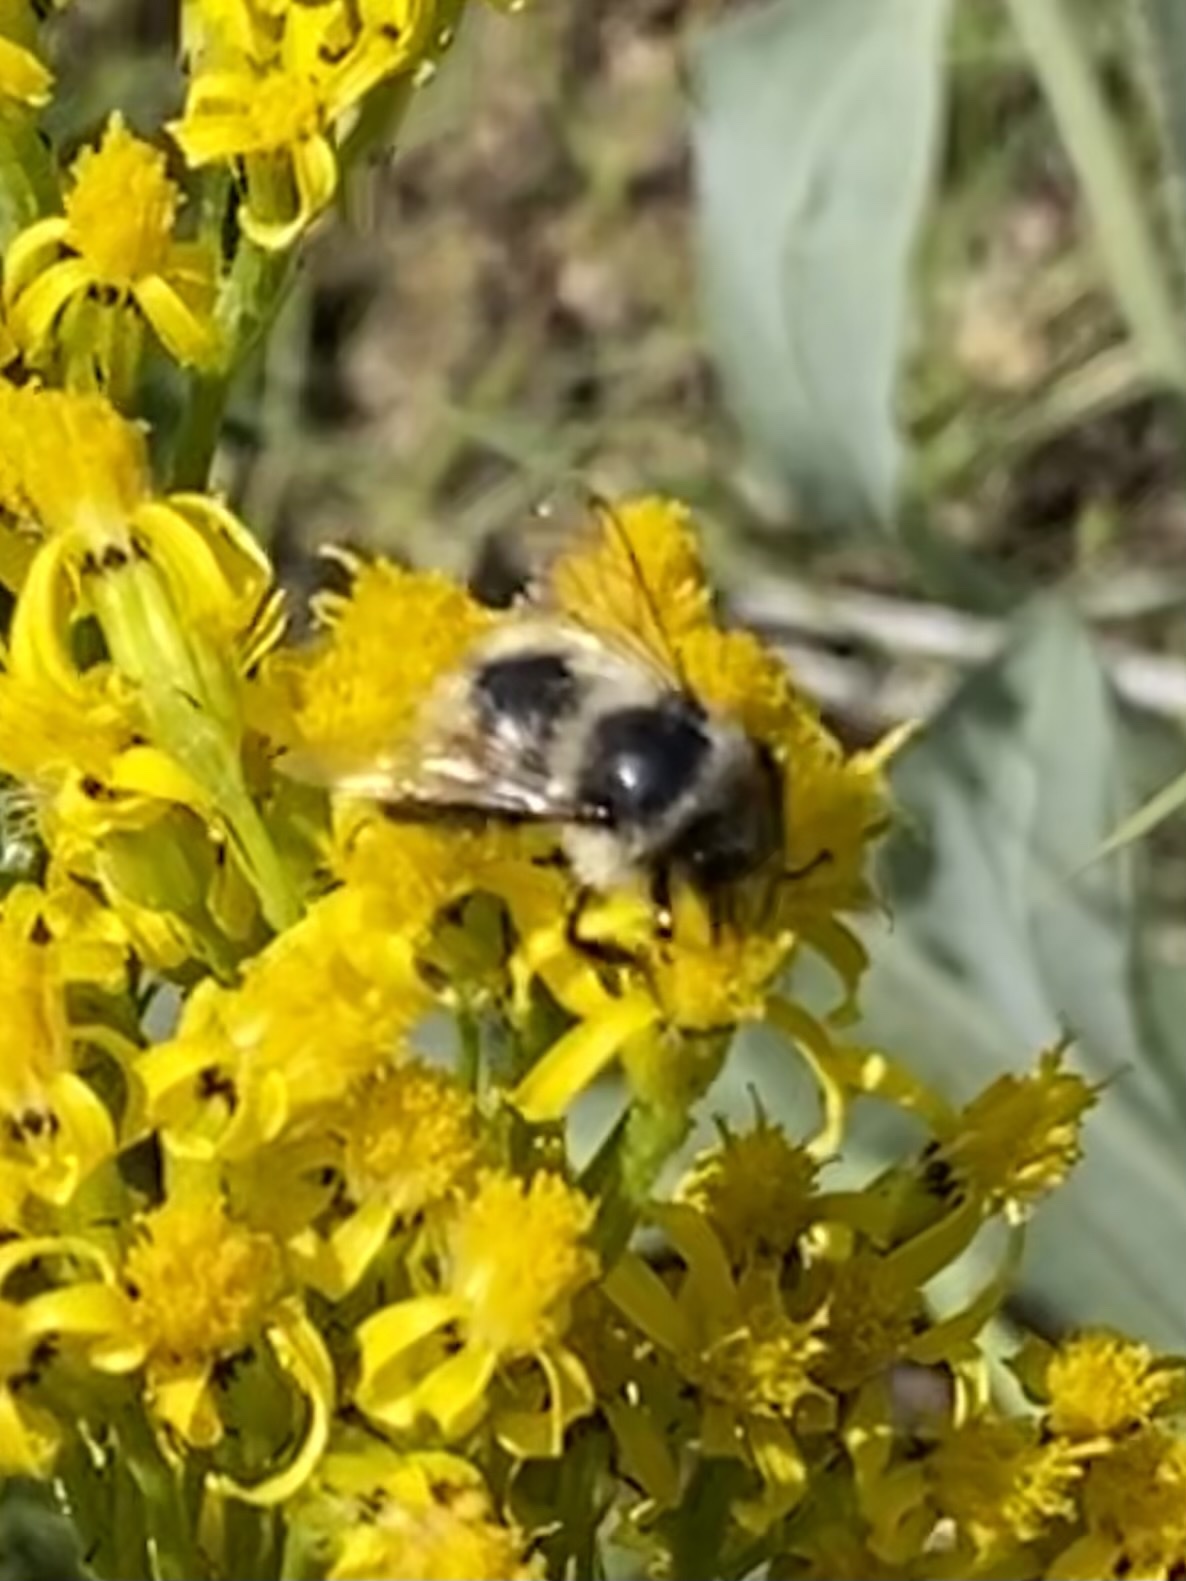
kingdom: Animalia
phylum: Arthropoda
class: Insecta
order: Hymenoptera
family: Apidae
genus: Bombus
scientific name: Bombus
